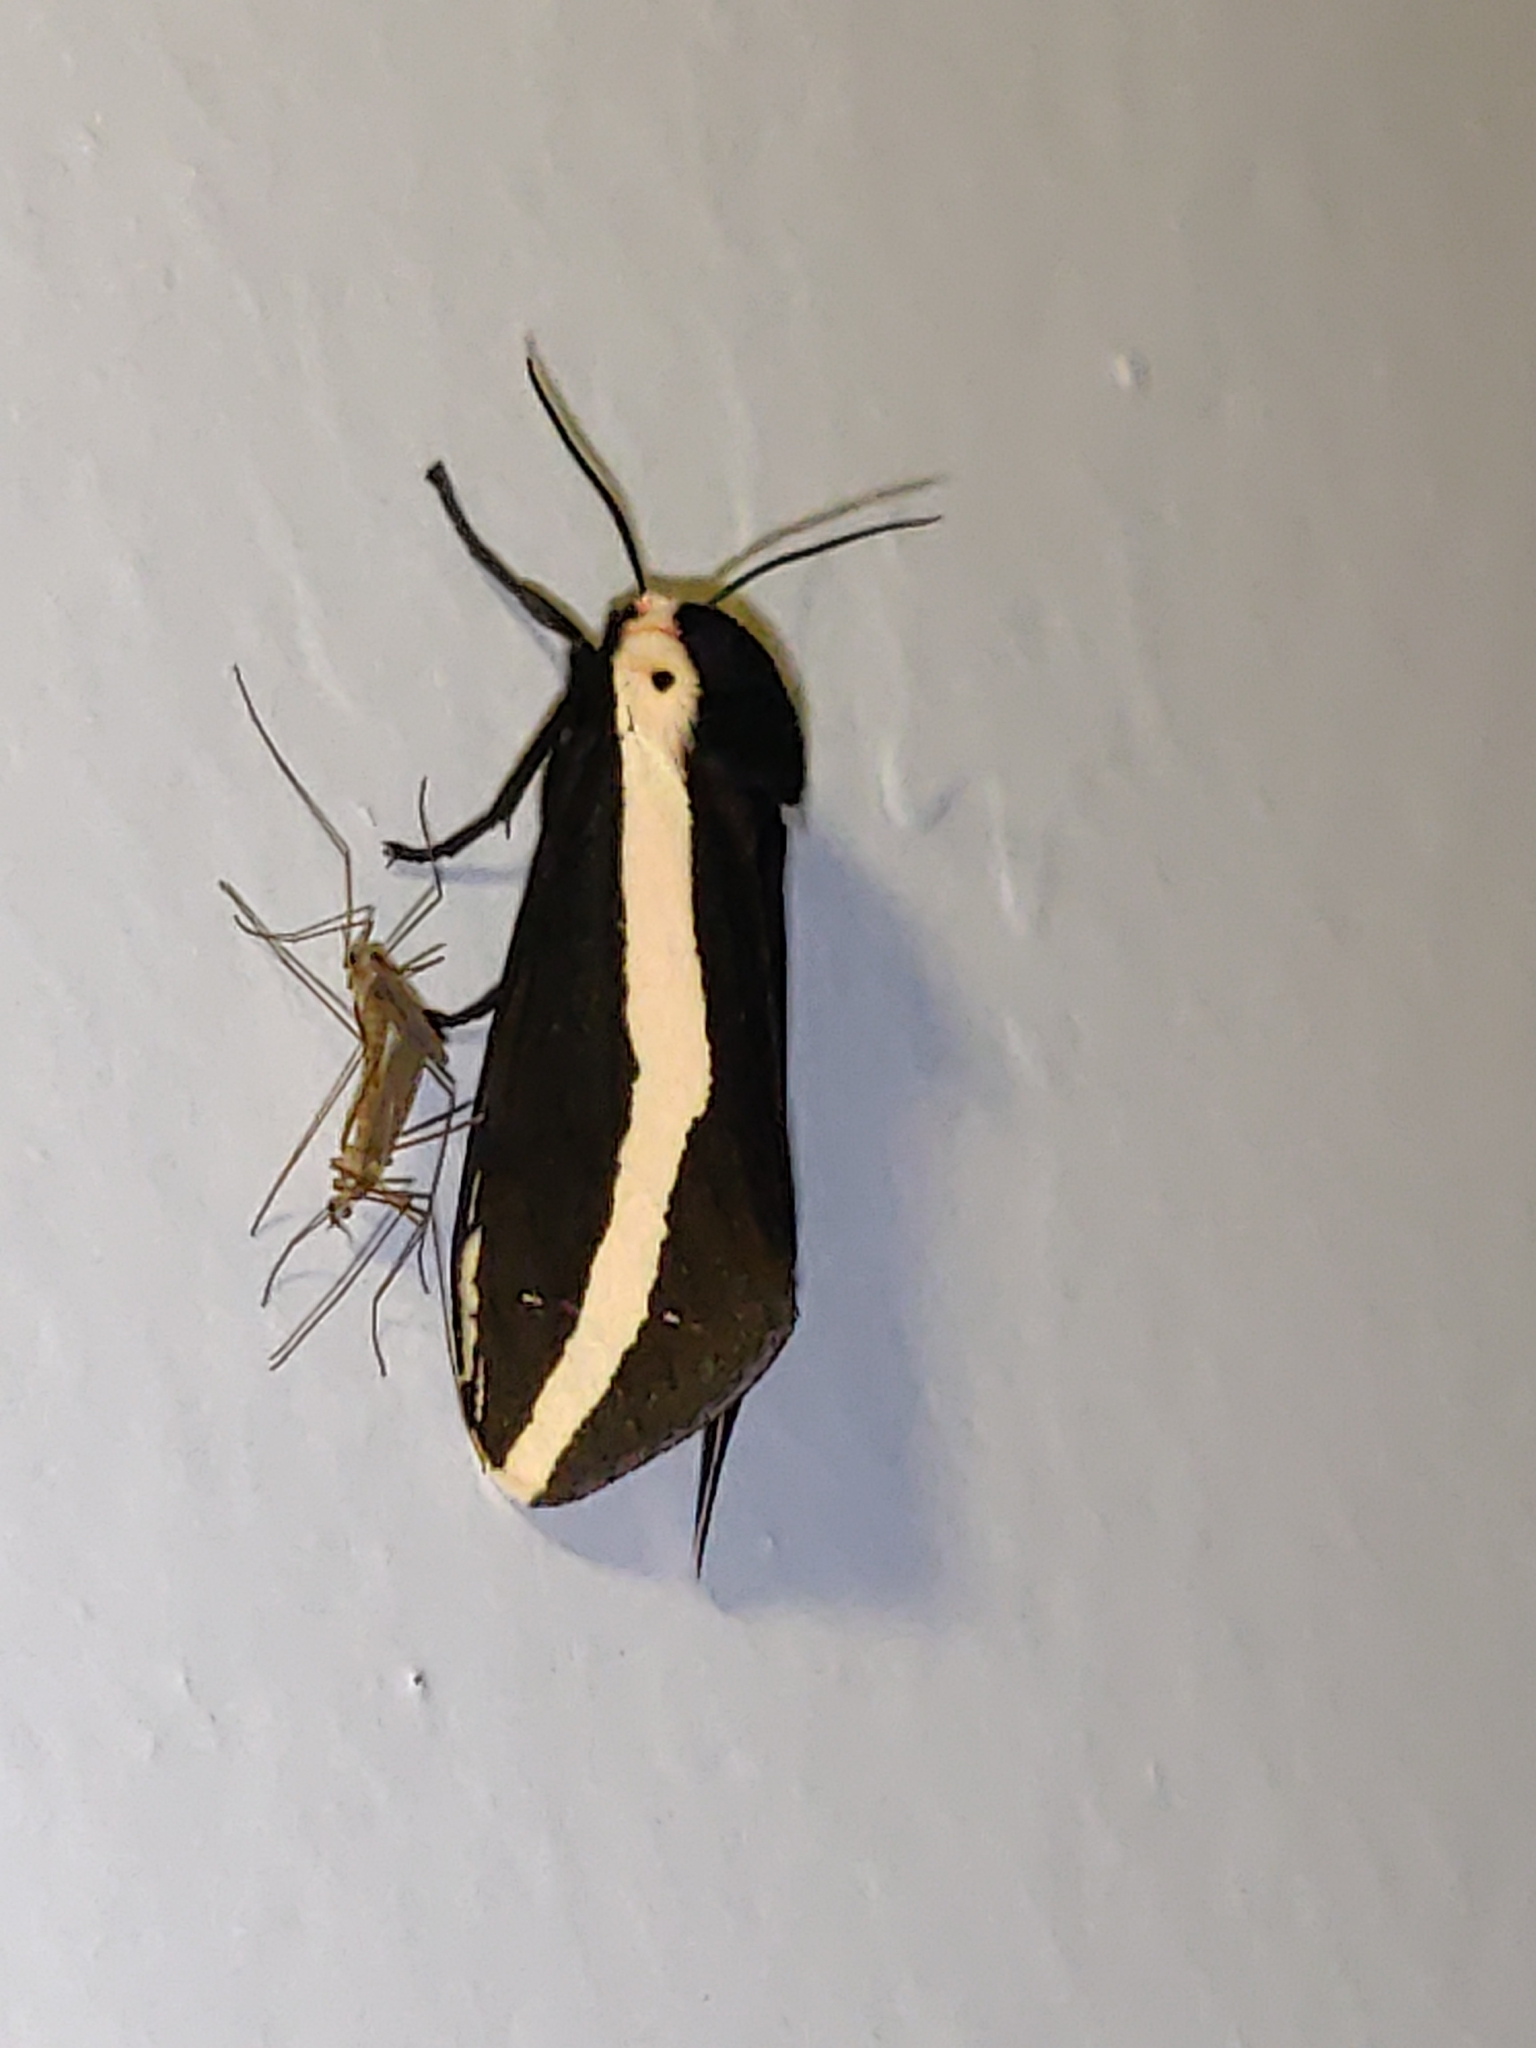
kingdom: Animalia
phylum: Arthropoda
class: Insecta
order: Lepidoptera
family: Erebidae
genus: Estigmene
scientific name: Estigmene
